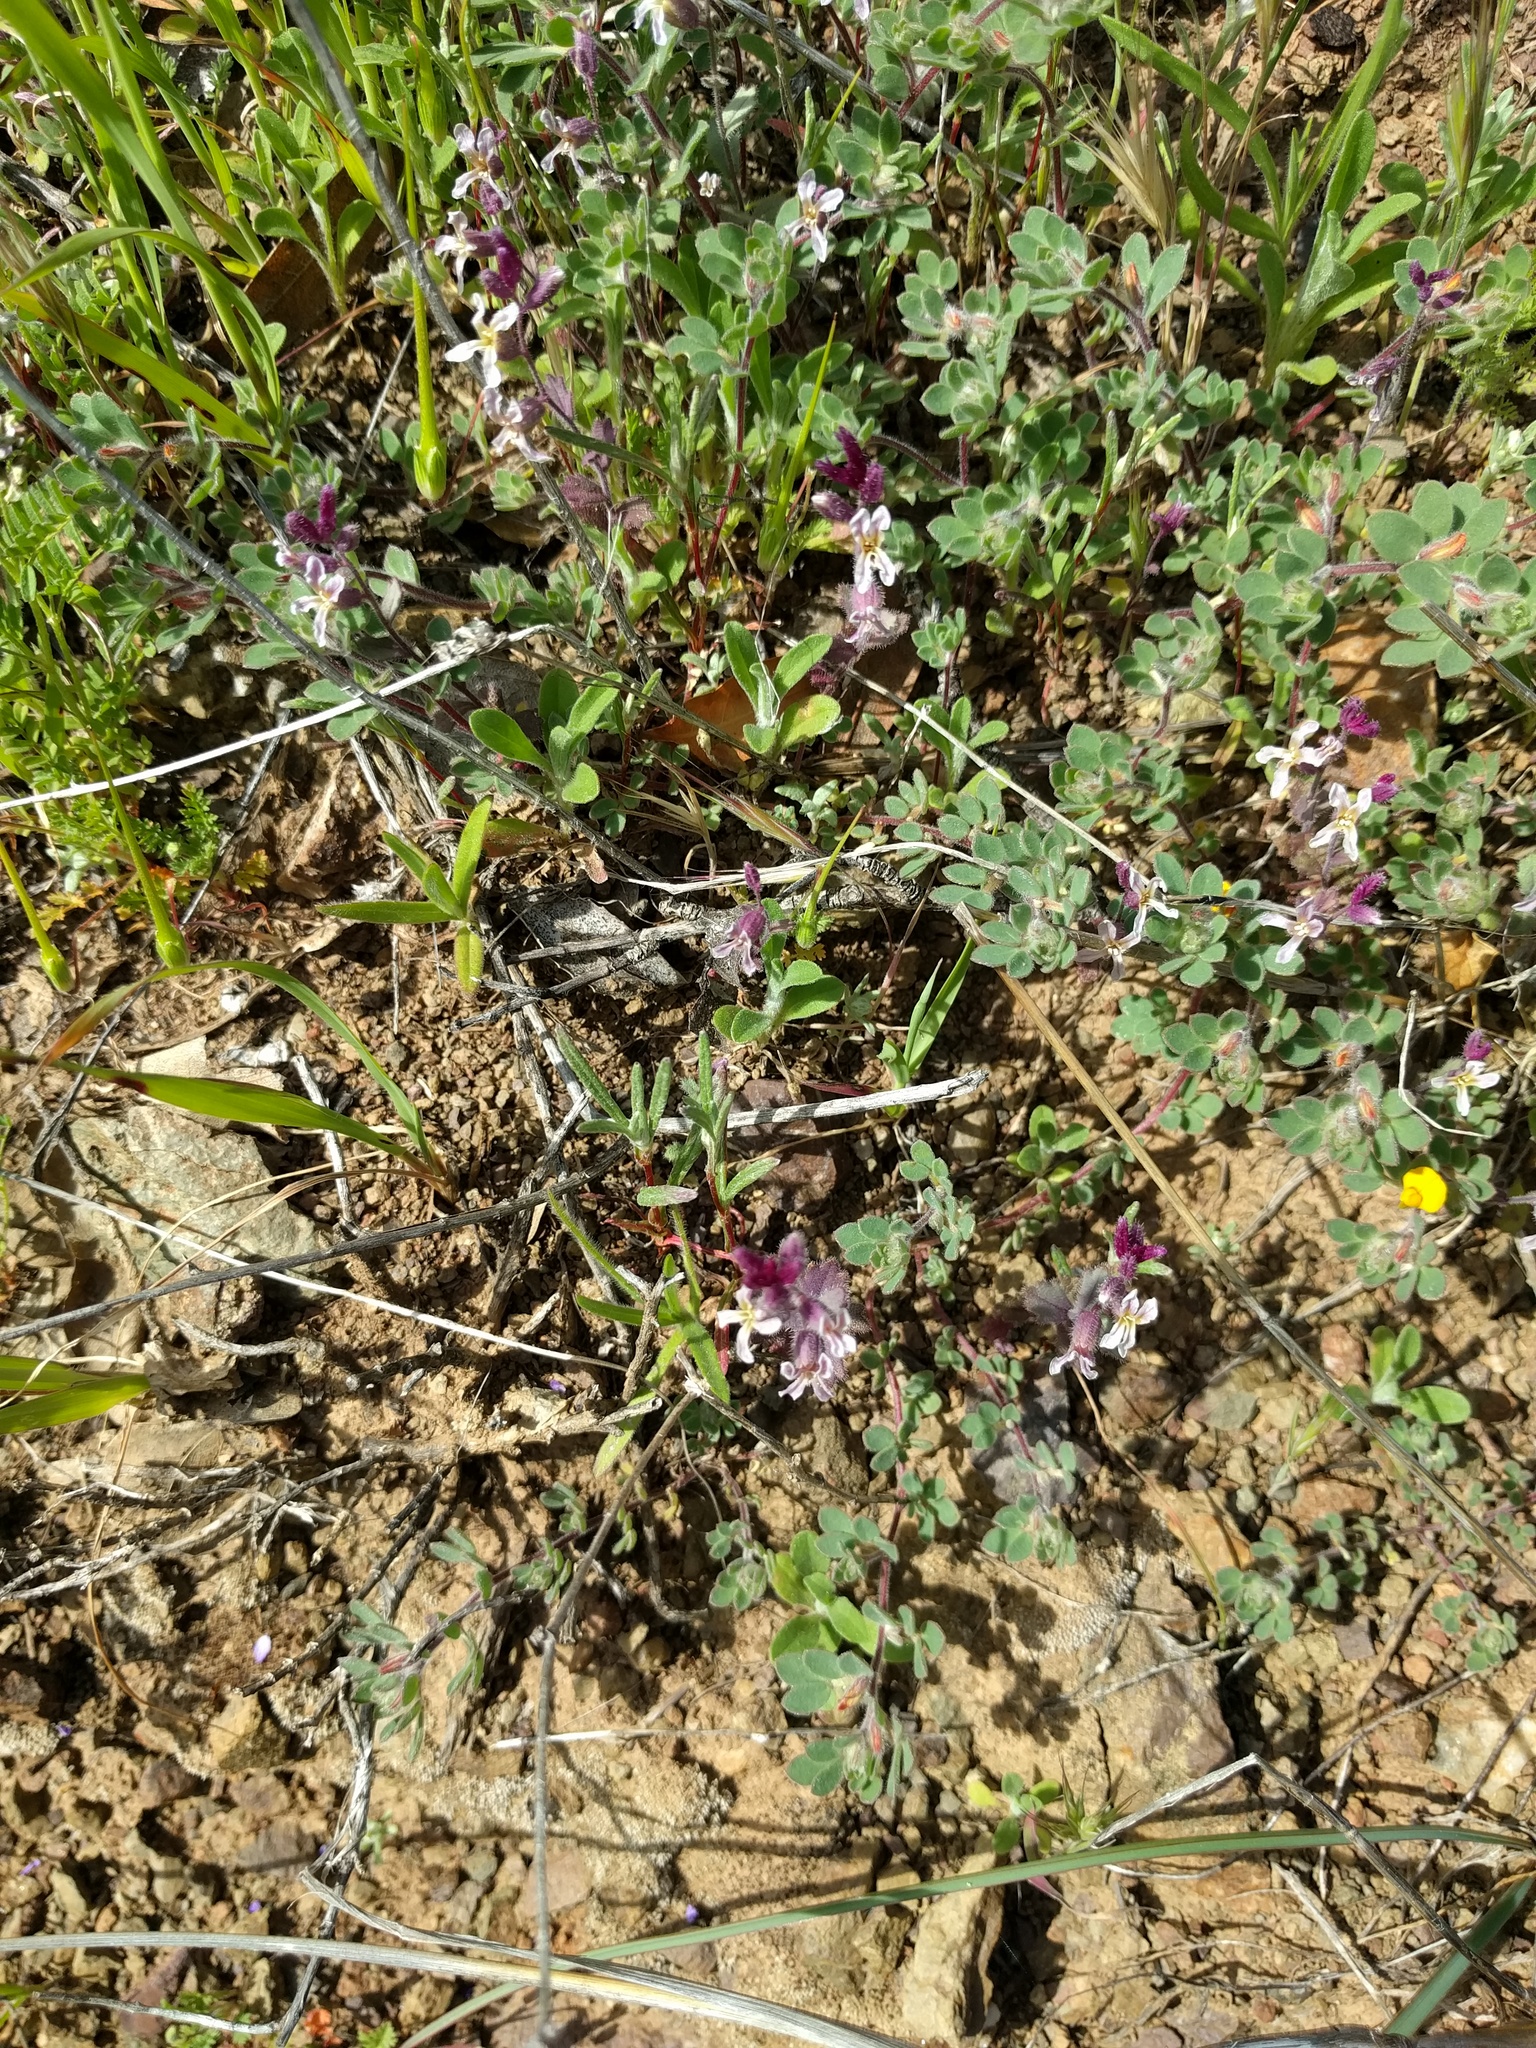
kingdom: Plantae
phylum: Tracheophyta
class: Magnoliopsida
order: Brassicales
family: Brassicaceae
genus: Streptanthus
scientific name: Streptanthus hispidus
